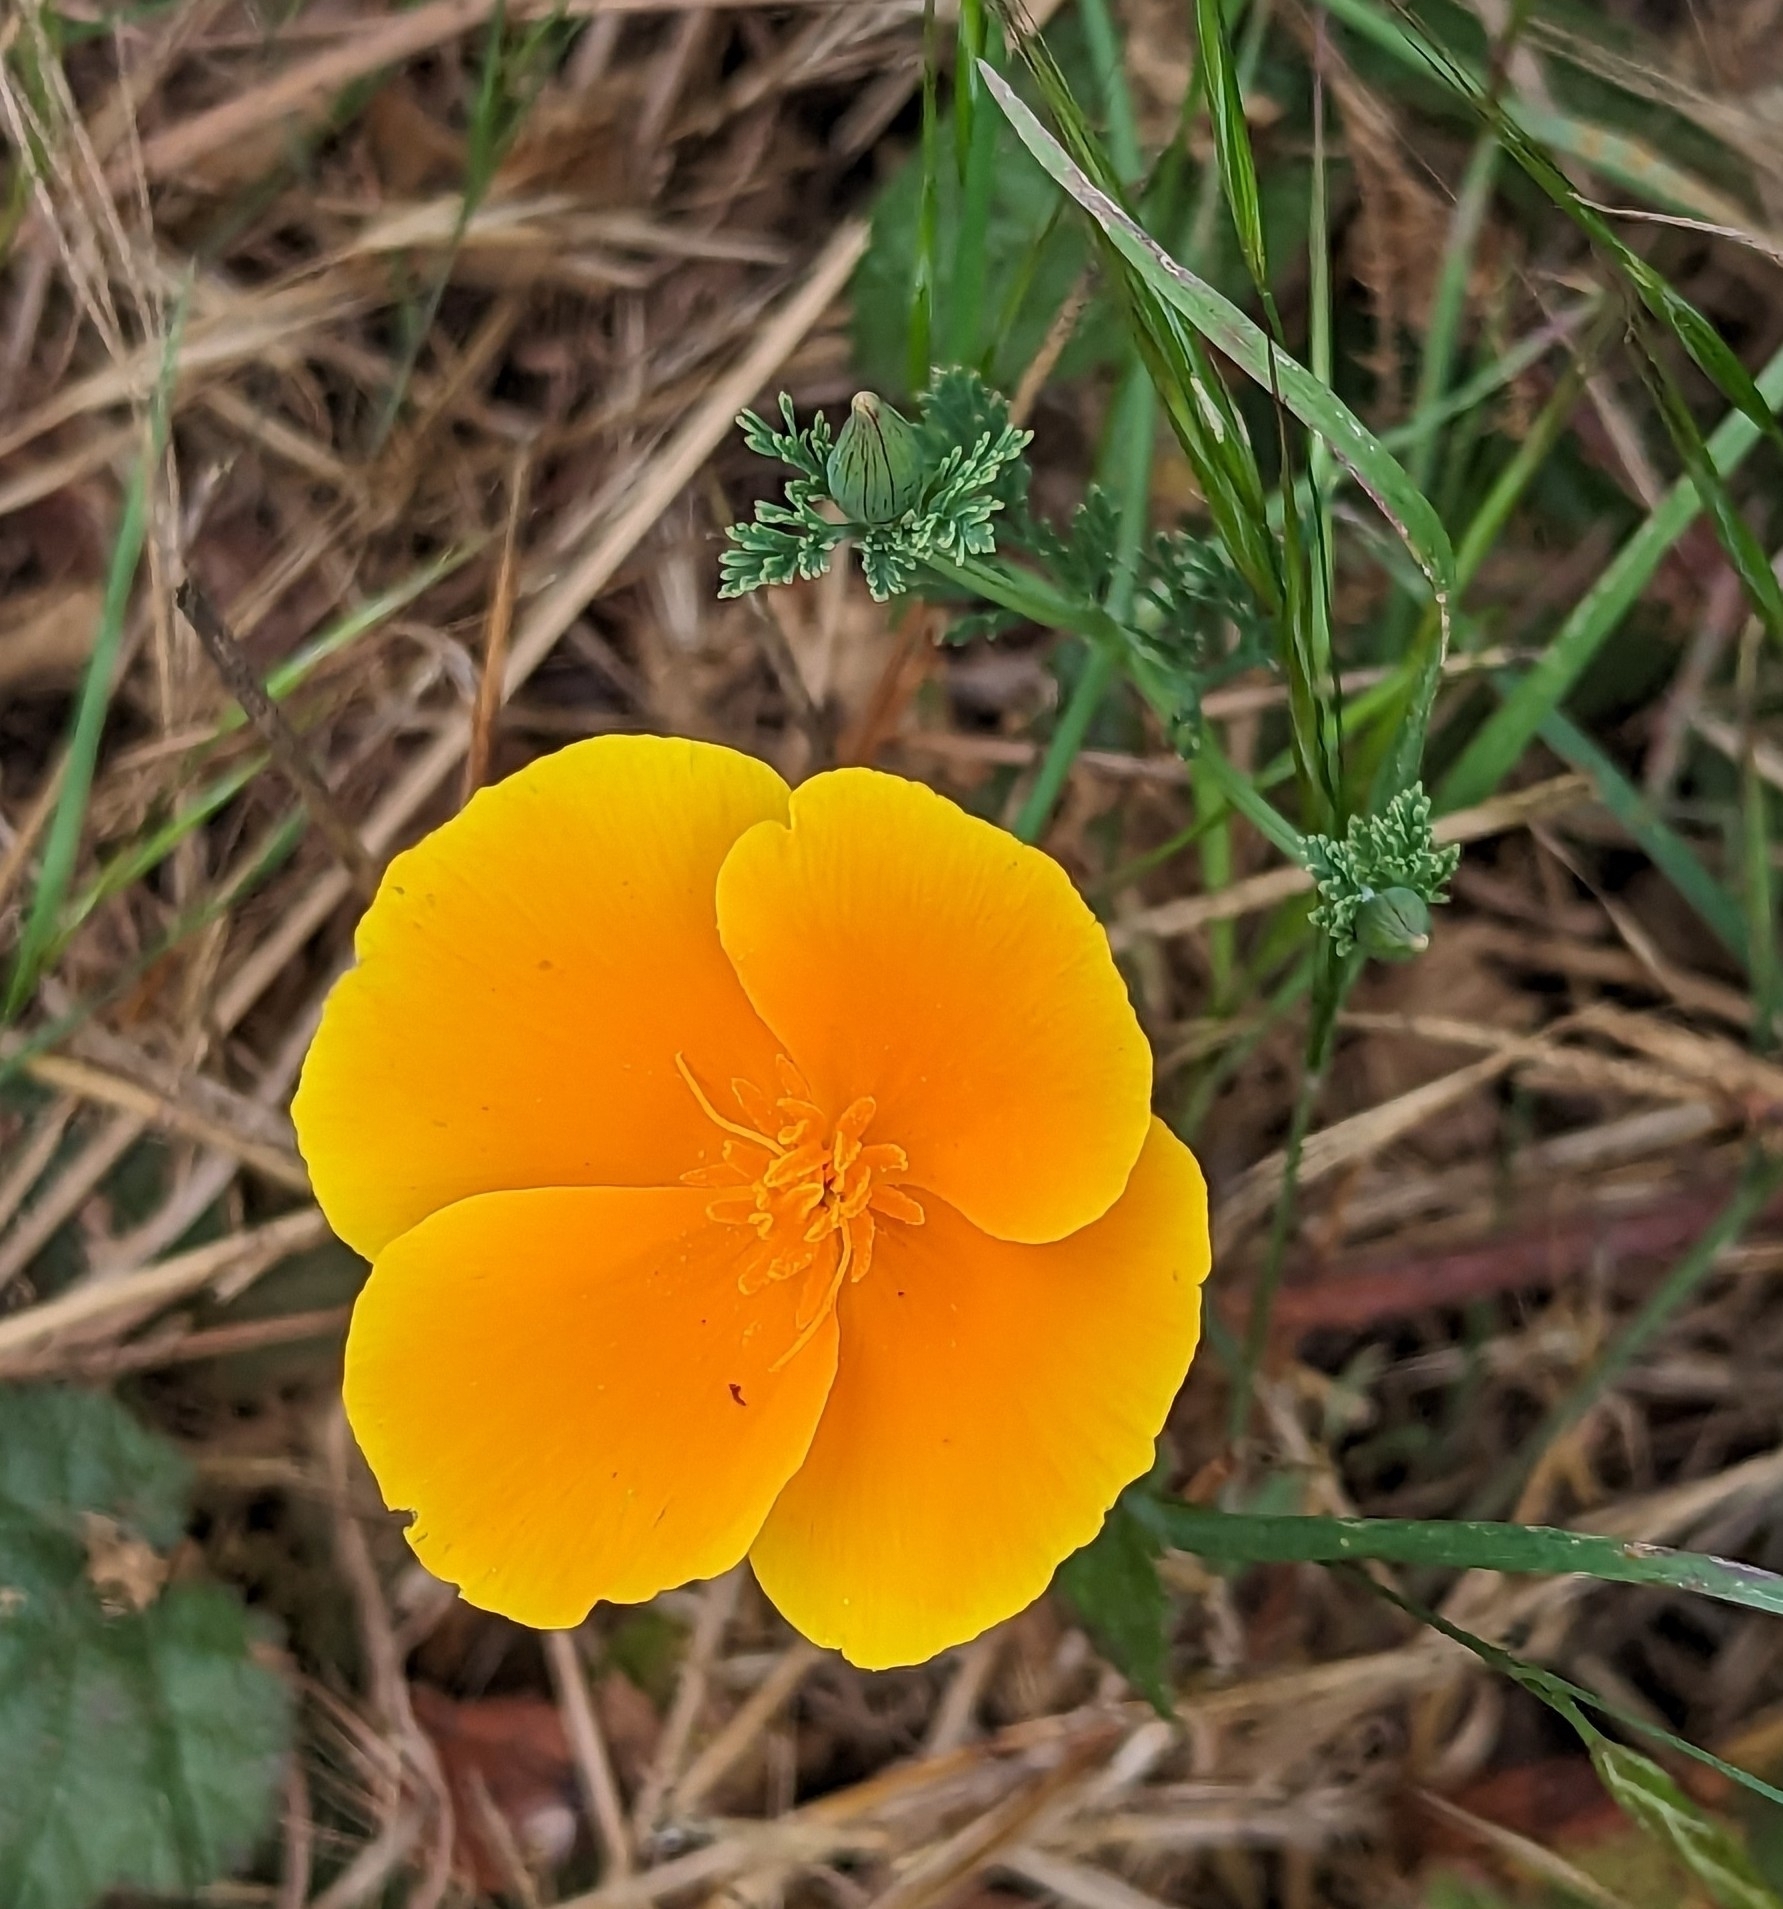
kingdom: Plantae
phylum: Tracheophyta
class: Magnoliopsida
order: Ranunculales
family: Papaveraceae
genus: Eschscholzia
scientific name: Eschscholzia californica
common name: California poppy
